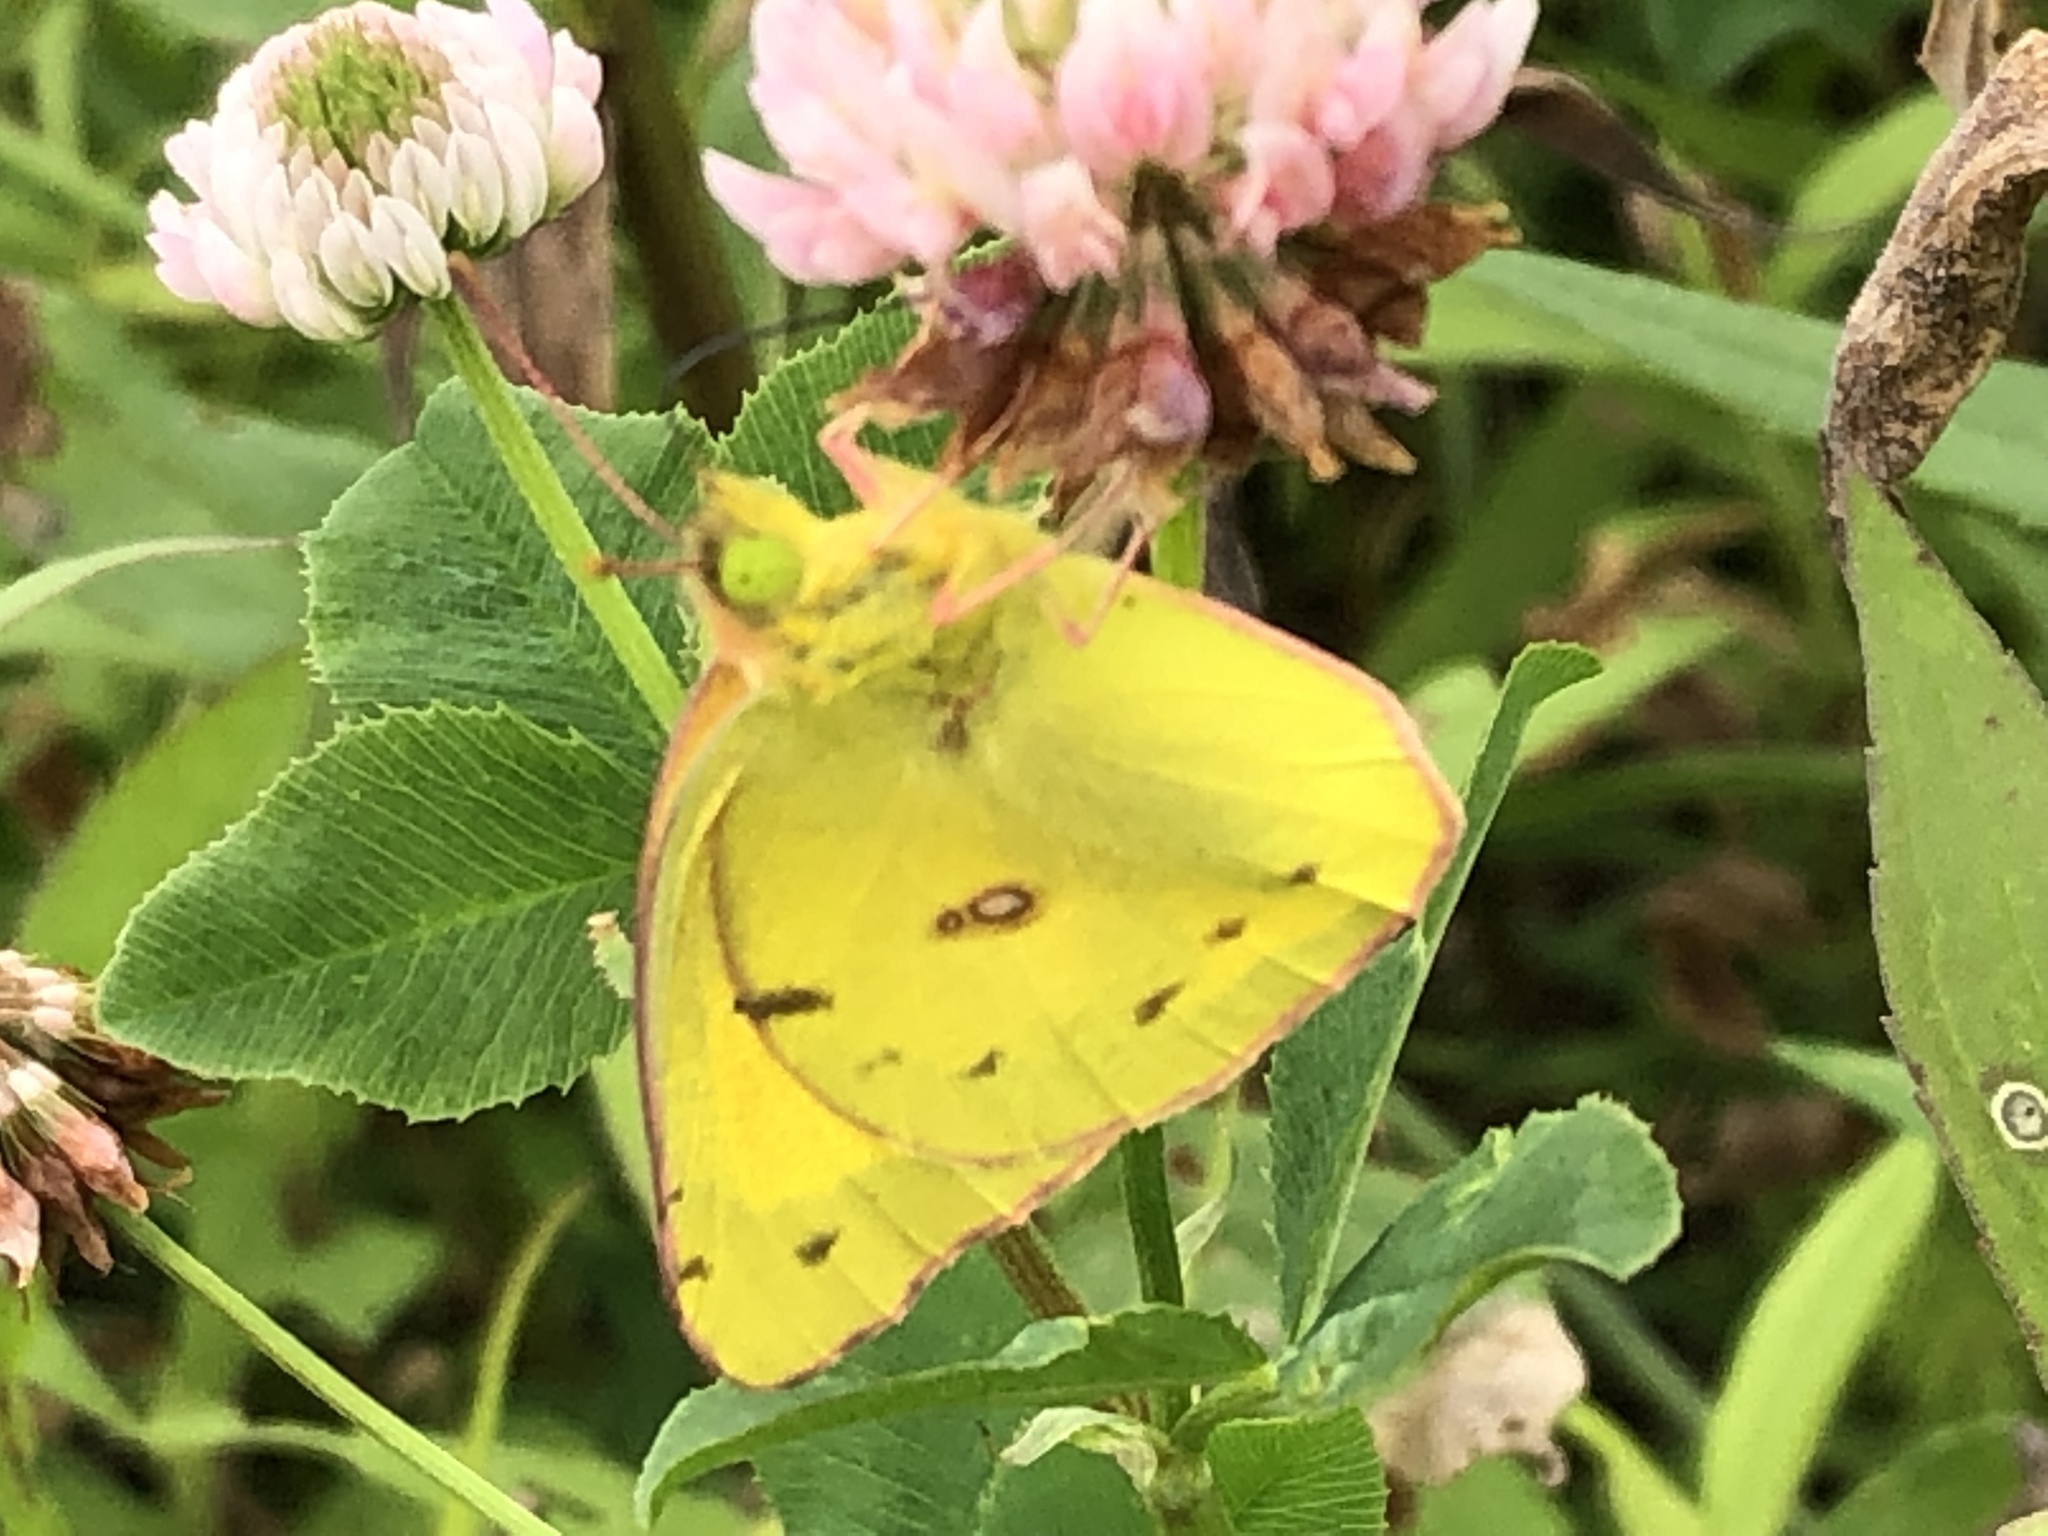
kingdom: Animalia
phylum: Arthropoda
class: Insecta
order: Lepidoptera
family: Pieridae
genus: Colias
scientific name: Colias eurytheme
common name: Alfalfa butterfly
